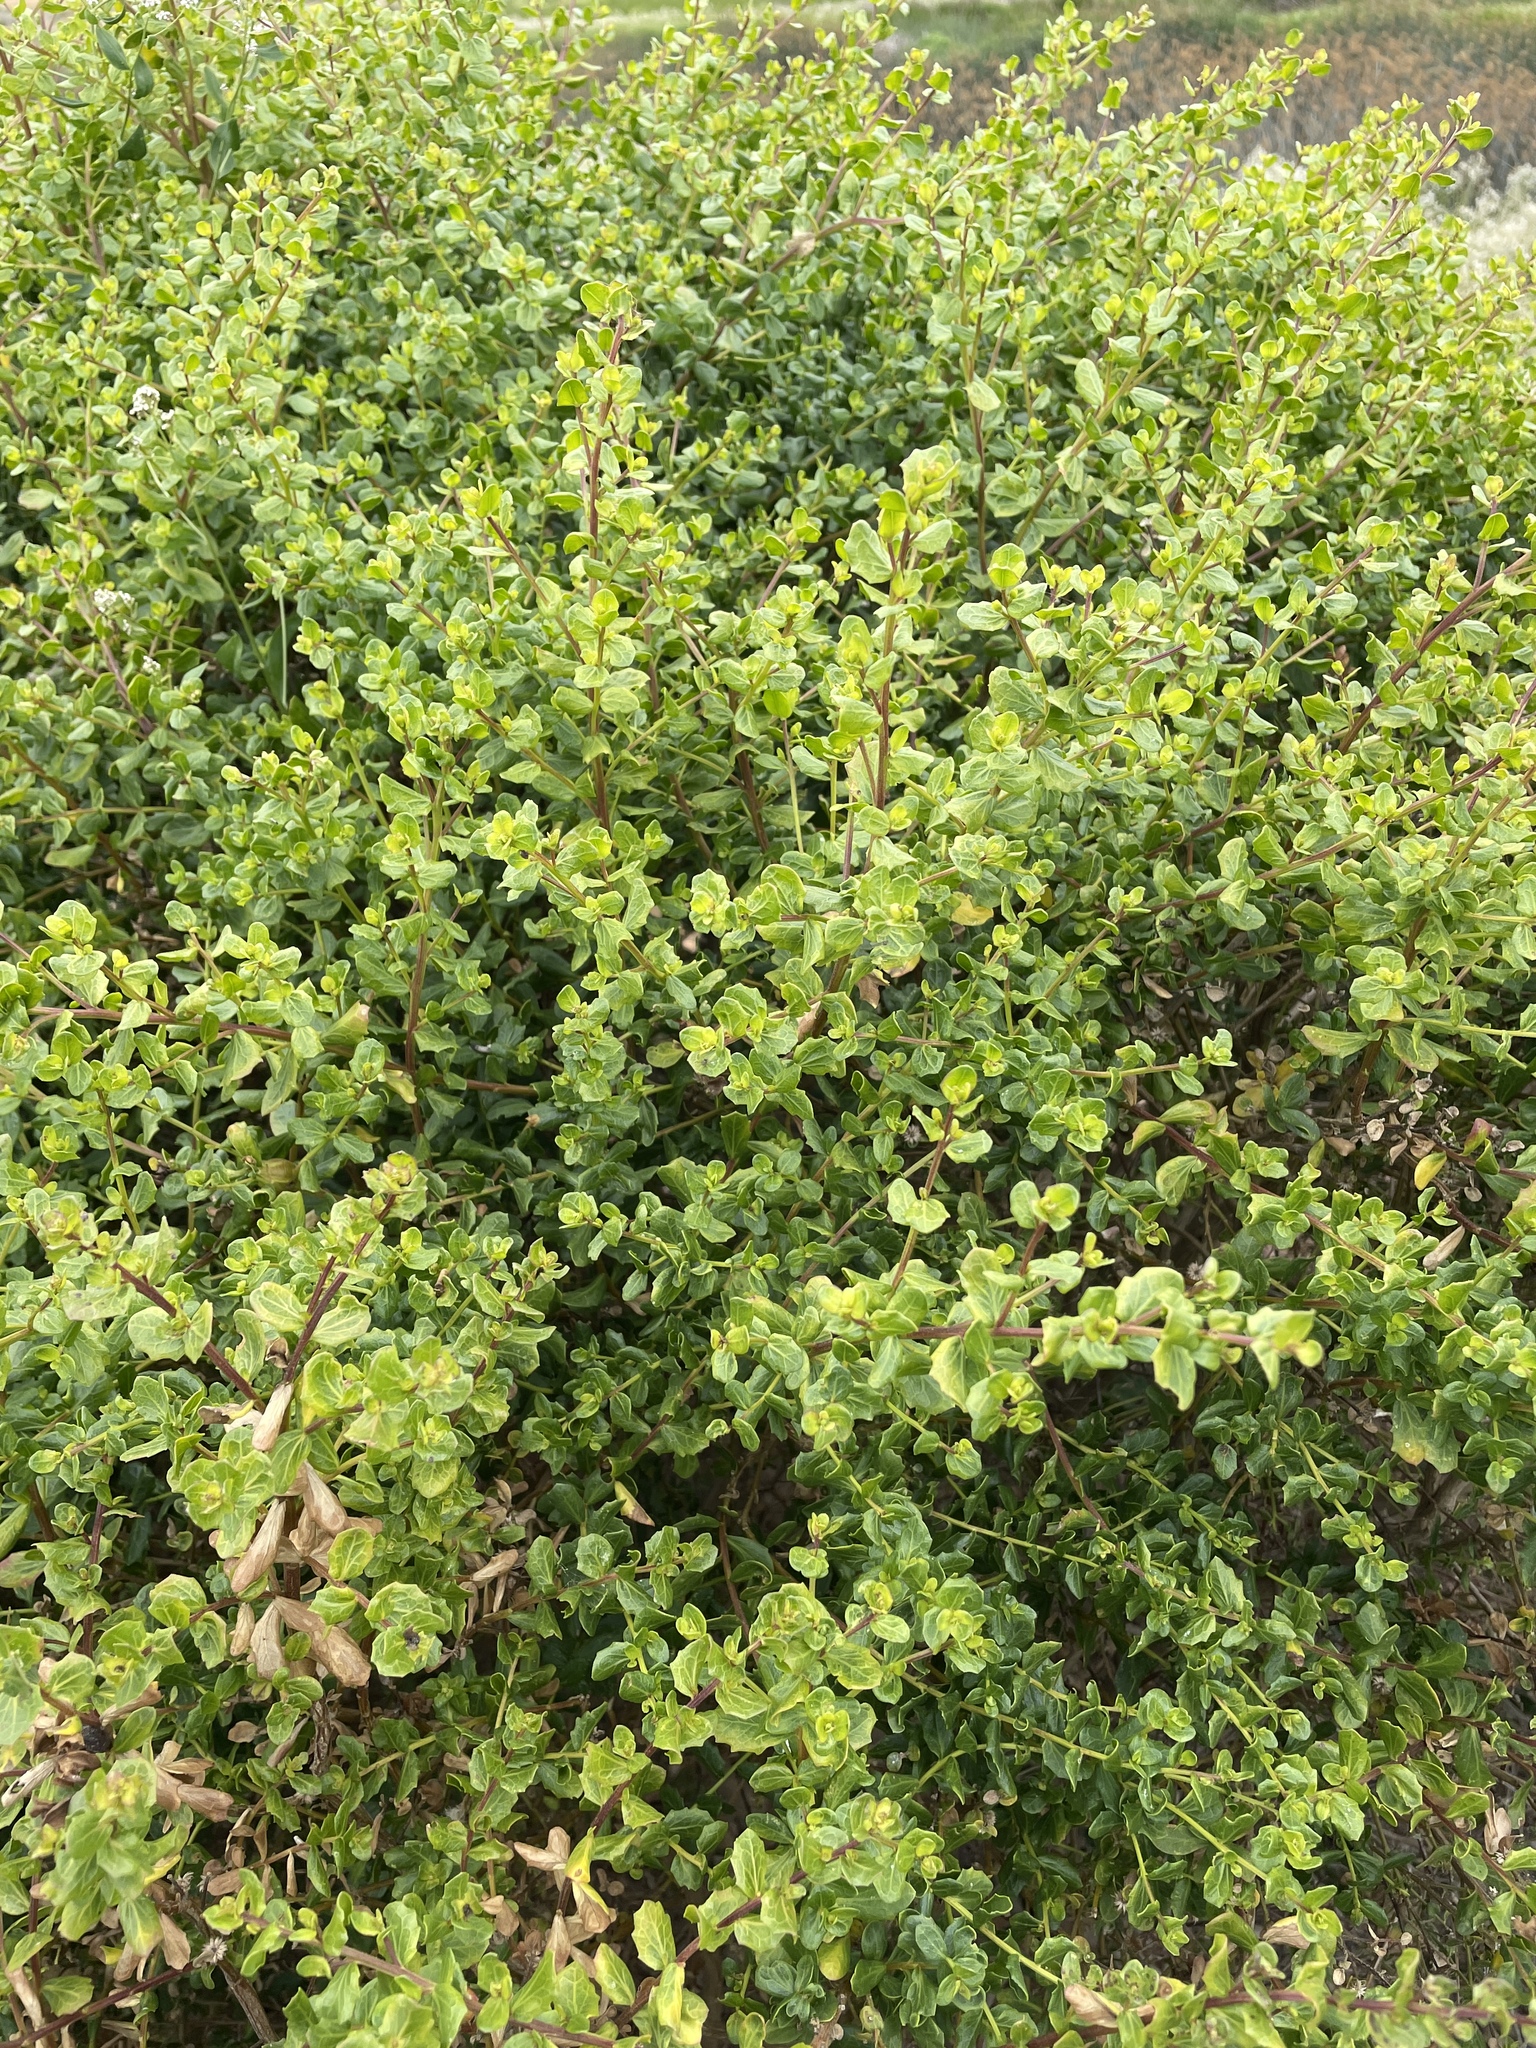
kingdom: Plantae
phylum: Tracheophyta
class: Magnoliopsida
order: Asterales
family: Asteraceae
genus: Baccharis
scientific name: Baccharis pilularis
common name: Coyotebrush
